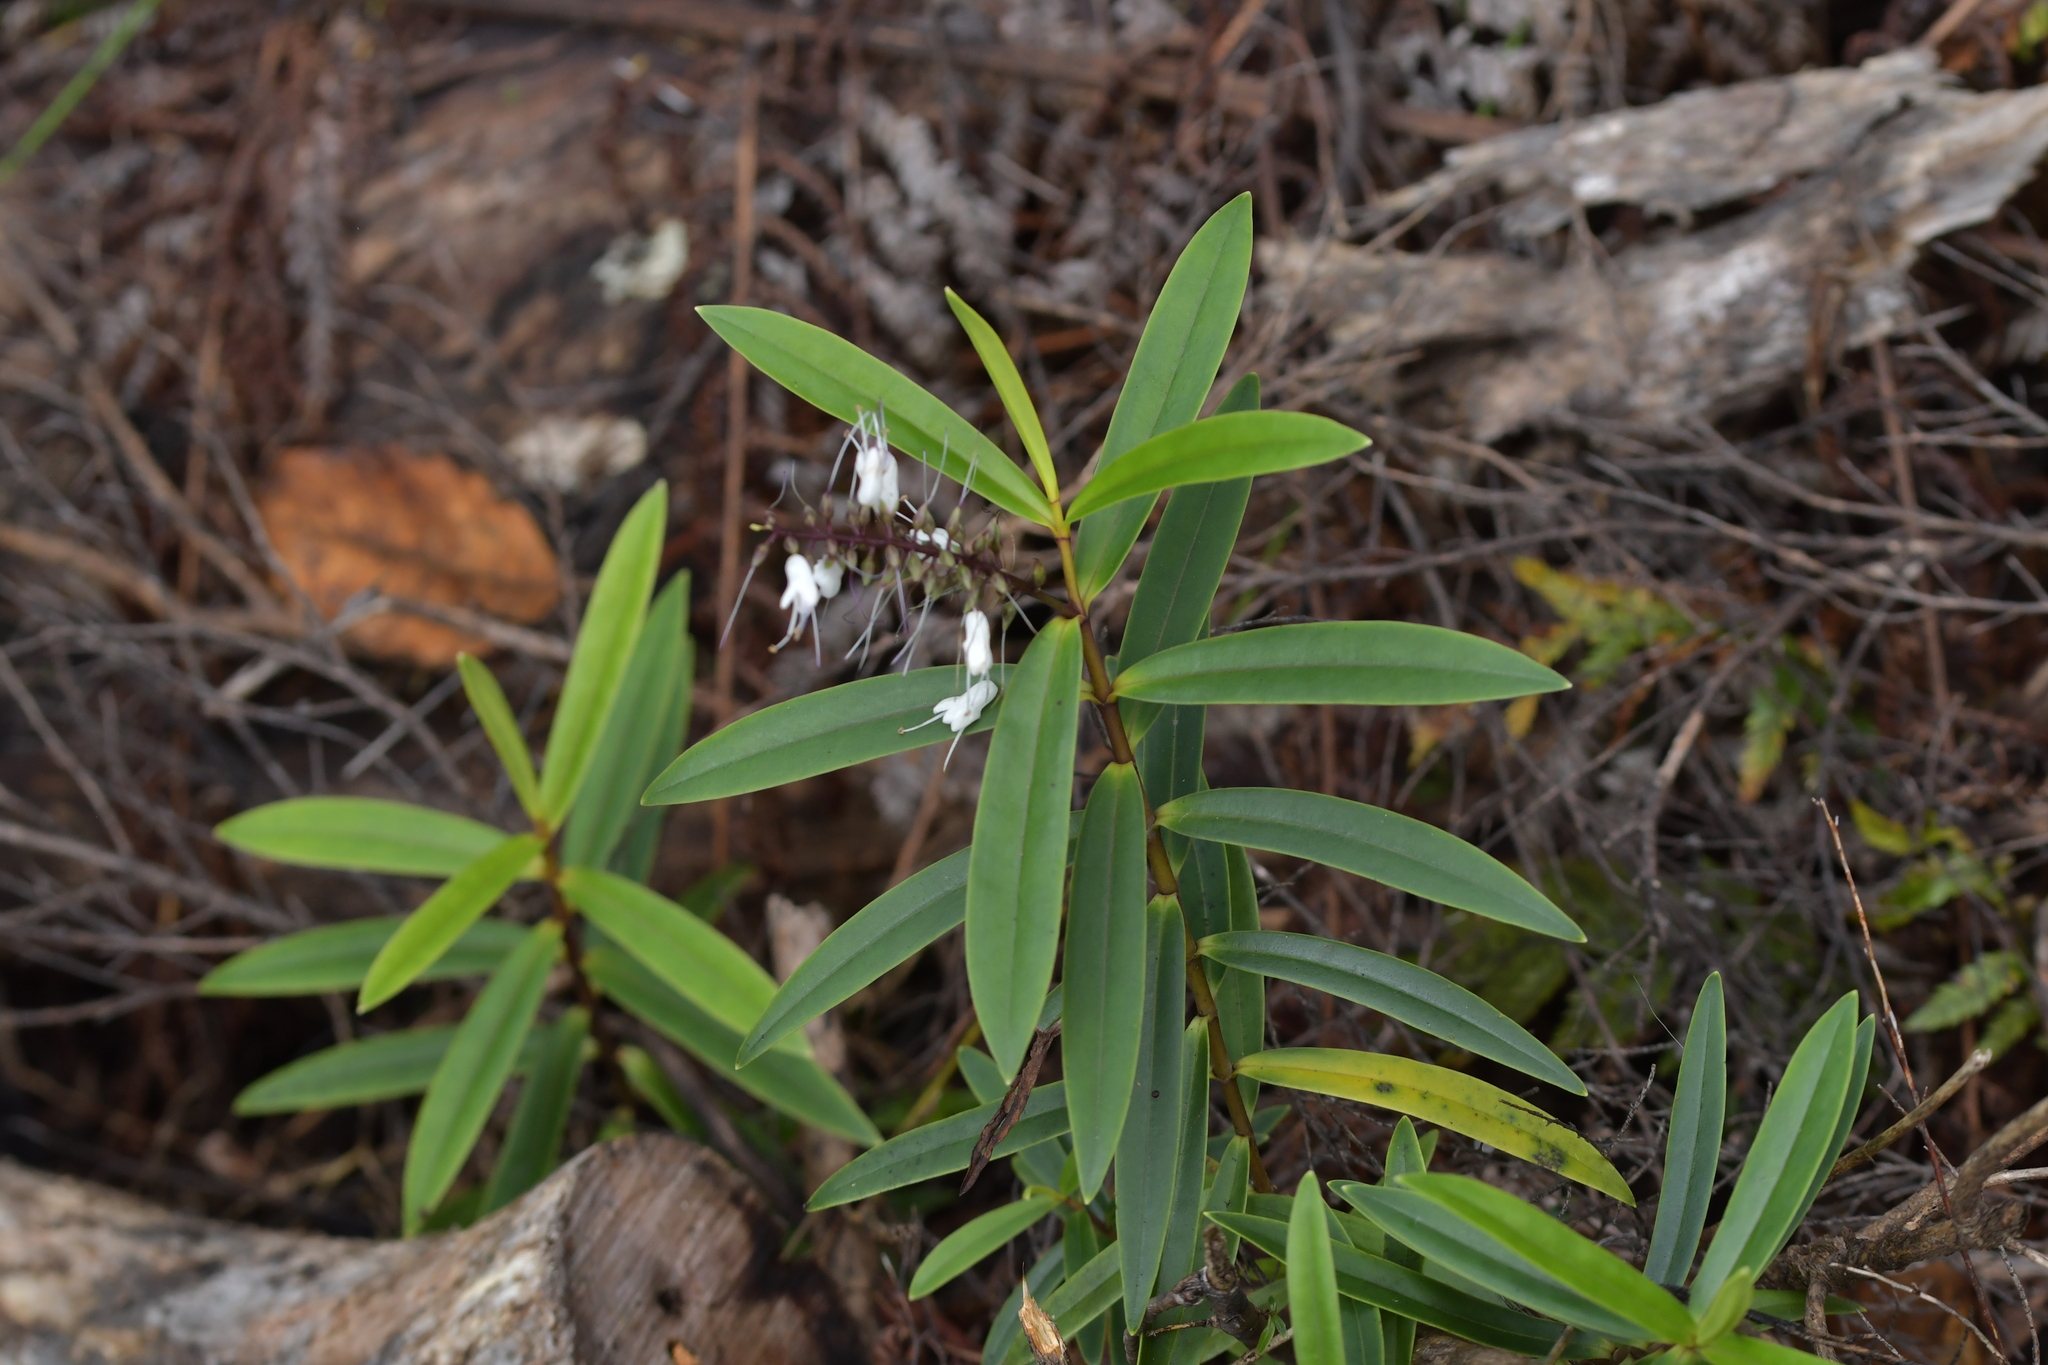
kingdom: Plantae
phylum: Tracheophyta
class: Magnoliopsida
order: Lamiales
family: Plantaginaceae
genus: Veronica
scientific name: Veronica macrocarpa
